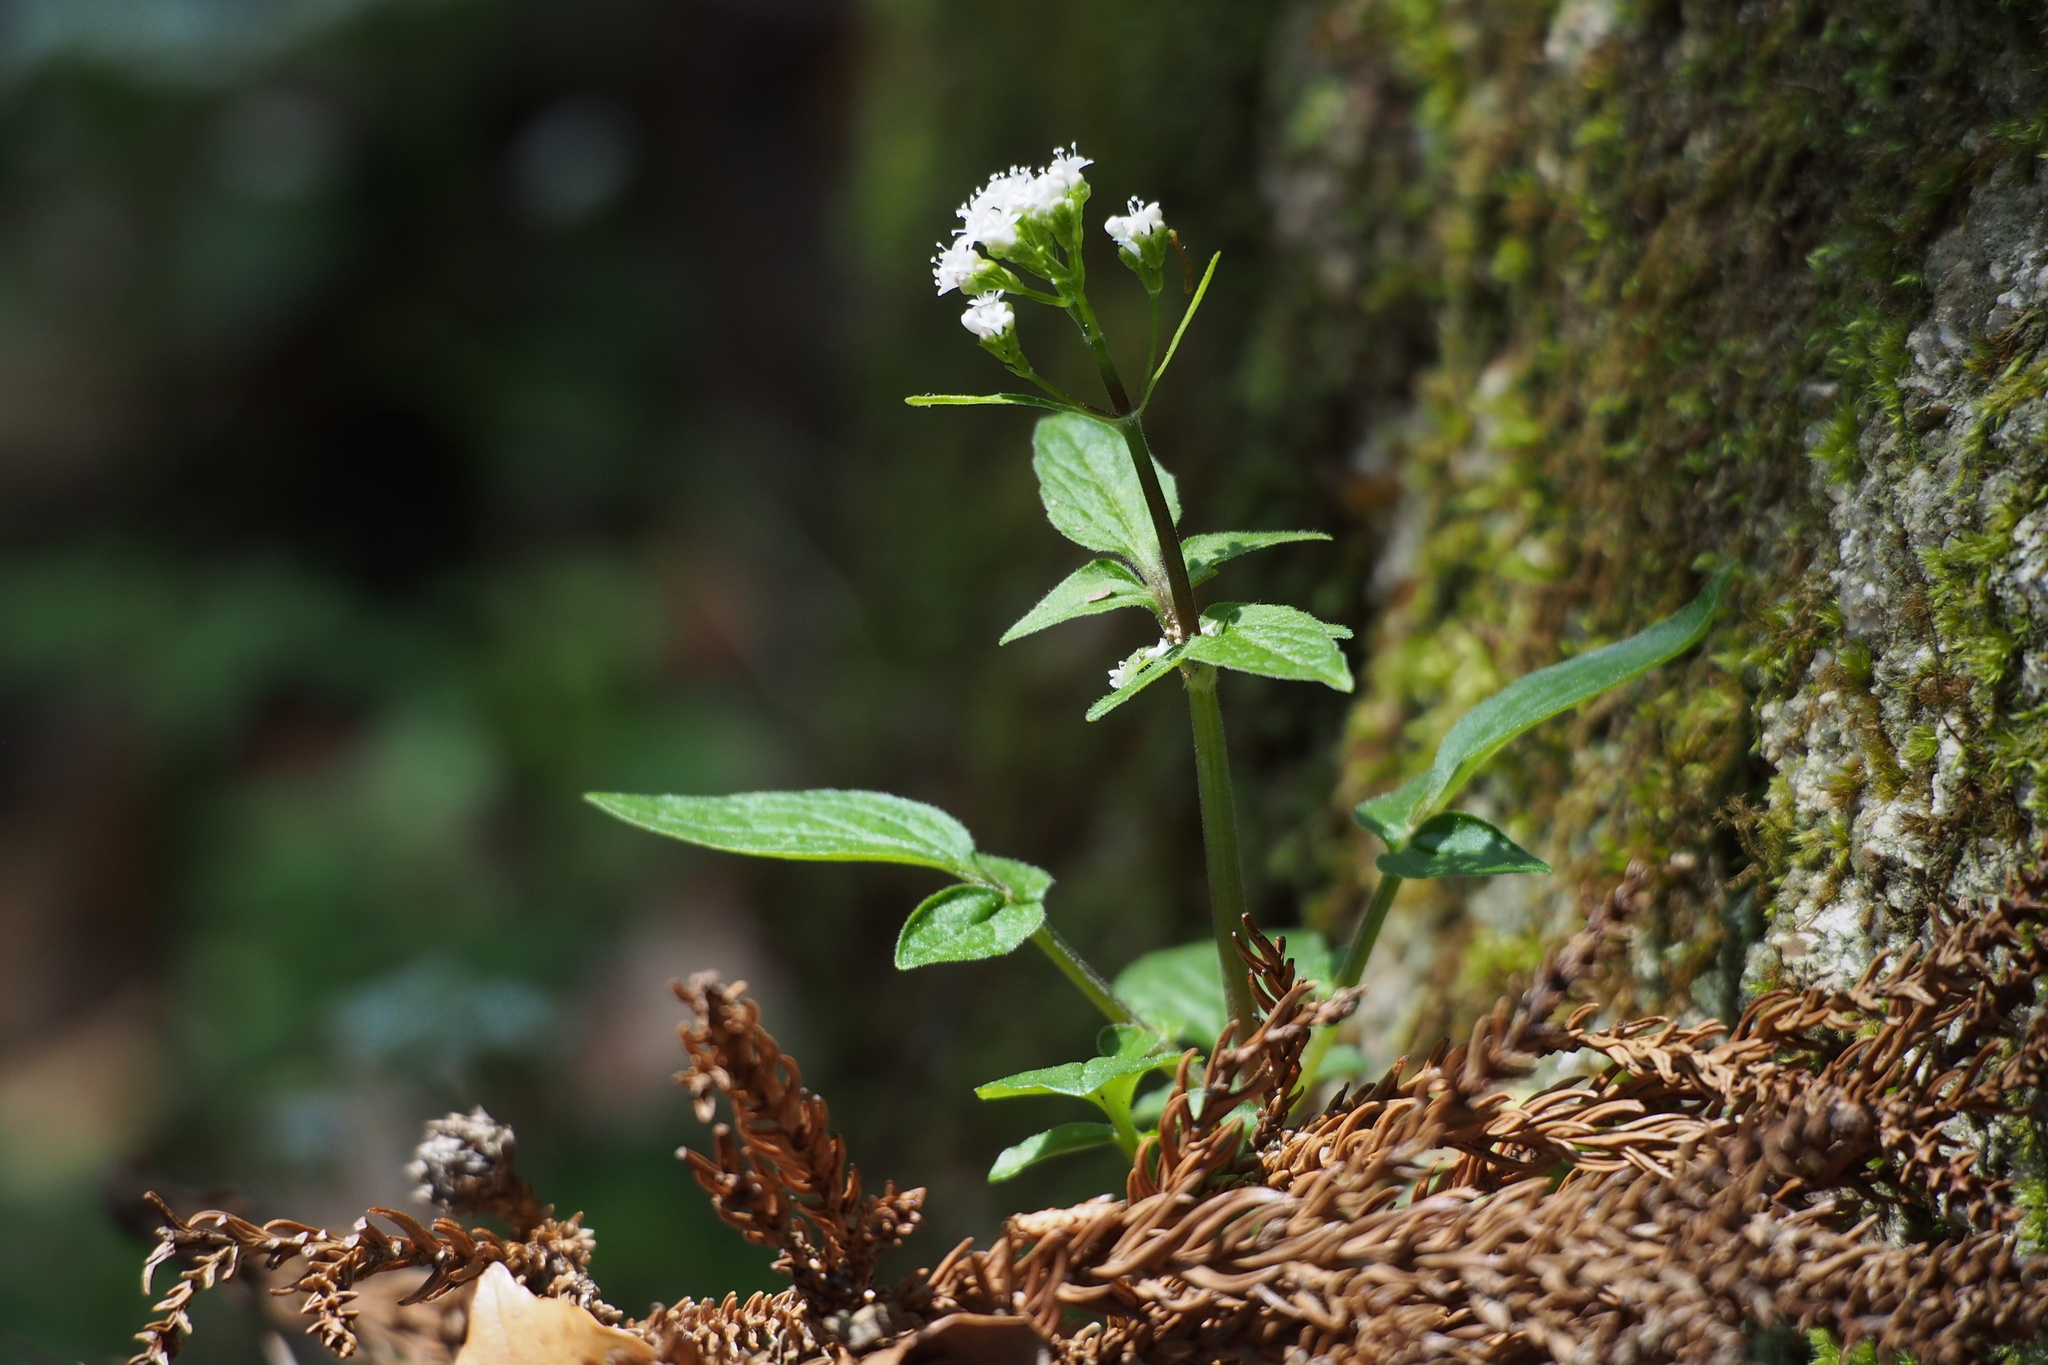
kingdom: Plantae
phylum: Tracheophyta
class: Magnoliopsida
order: Dipsacales
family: Caprifoliaceae
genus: Valeriana
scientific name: Valeriana flaccidissima
